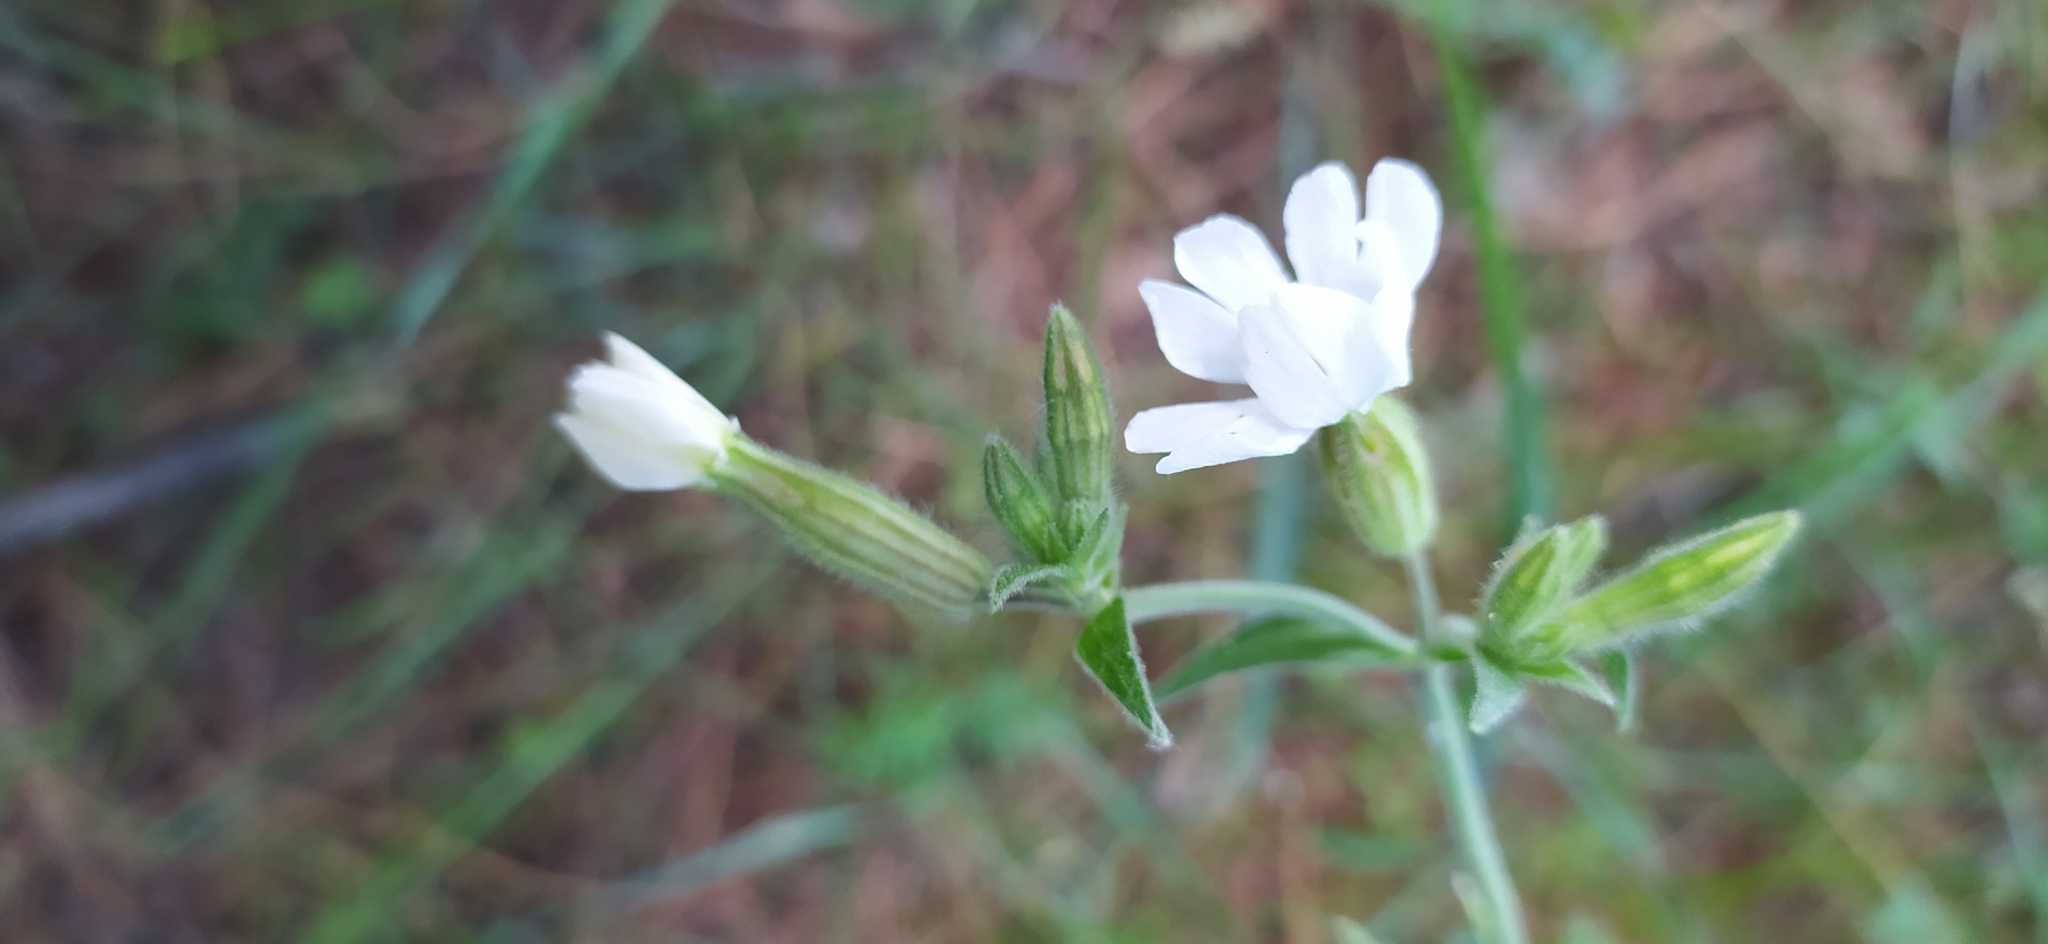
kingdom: Plantae
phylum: Tracheophyta
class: Magnoliopsida
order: Caryophyllales
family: Caryophyllaceae
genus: Silene
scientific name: Silene latifolia
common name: White campion
